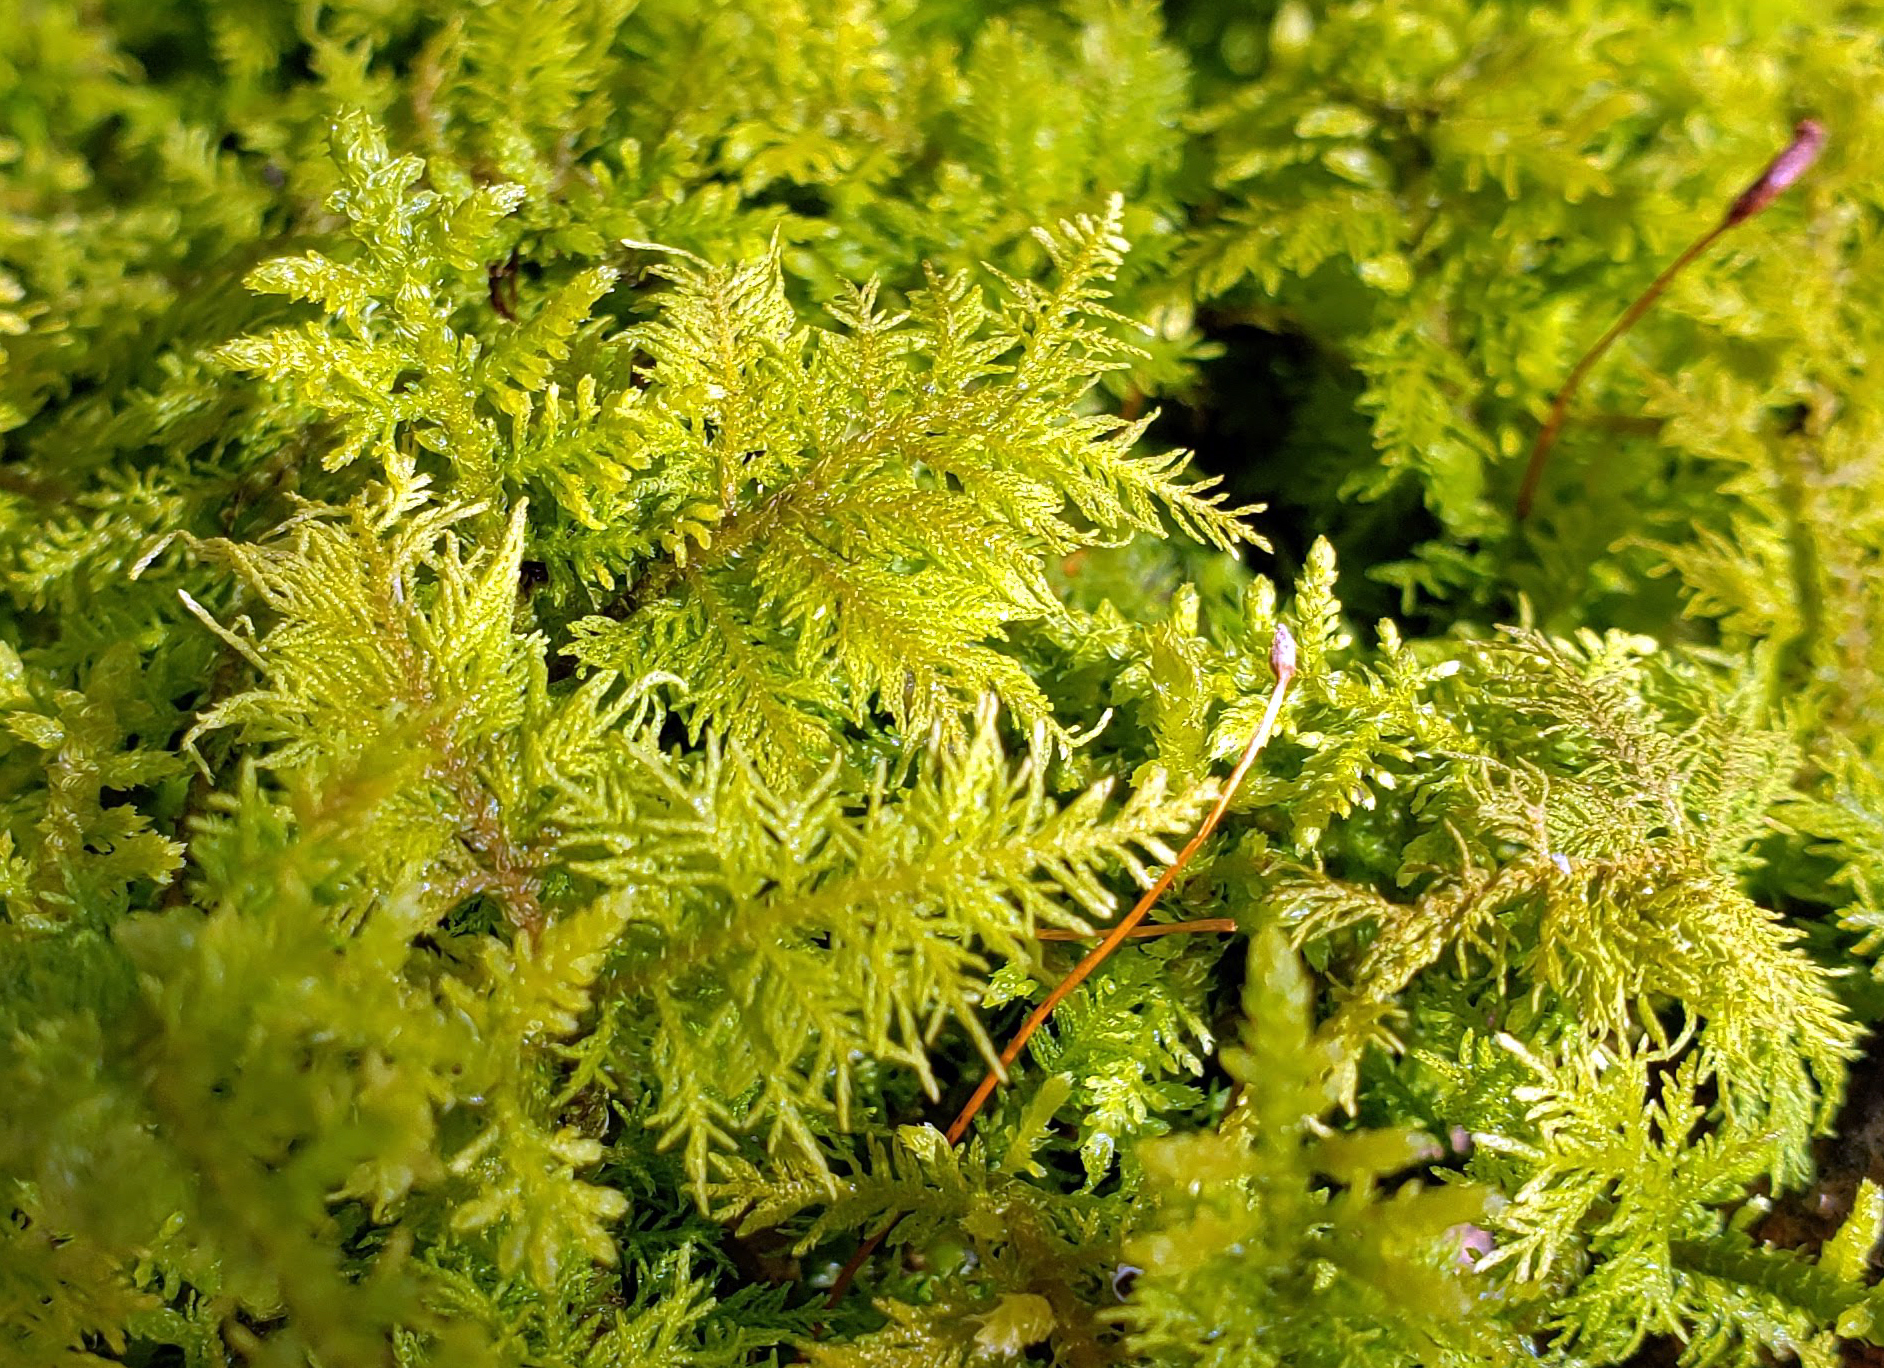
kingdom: Plantae
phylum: Bryophyta
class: Bryopsida
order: Hypnales
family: Thuidiaceae
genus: Thuidium
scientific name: Thuidium delicatulum
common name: Delicate fern moss
